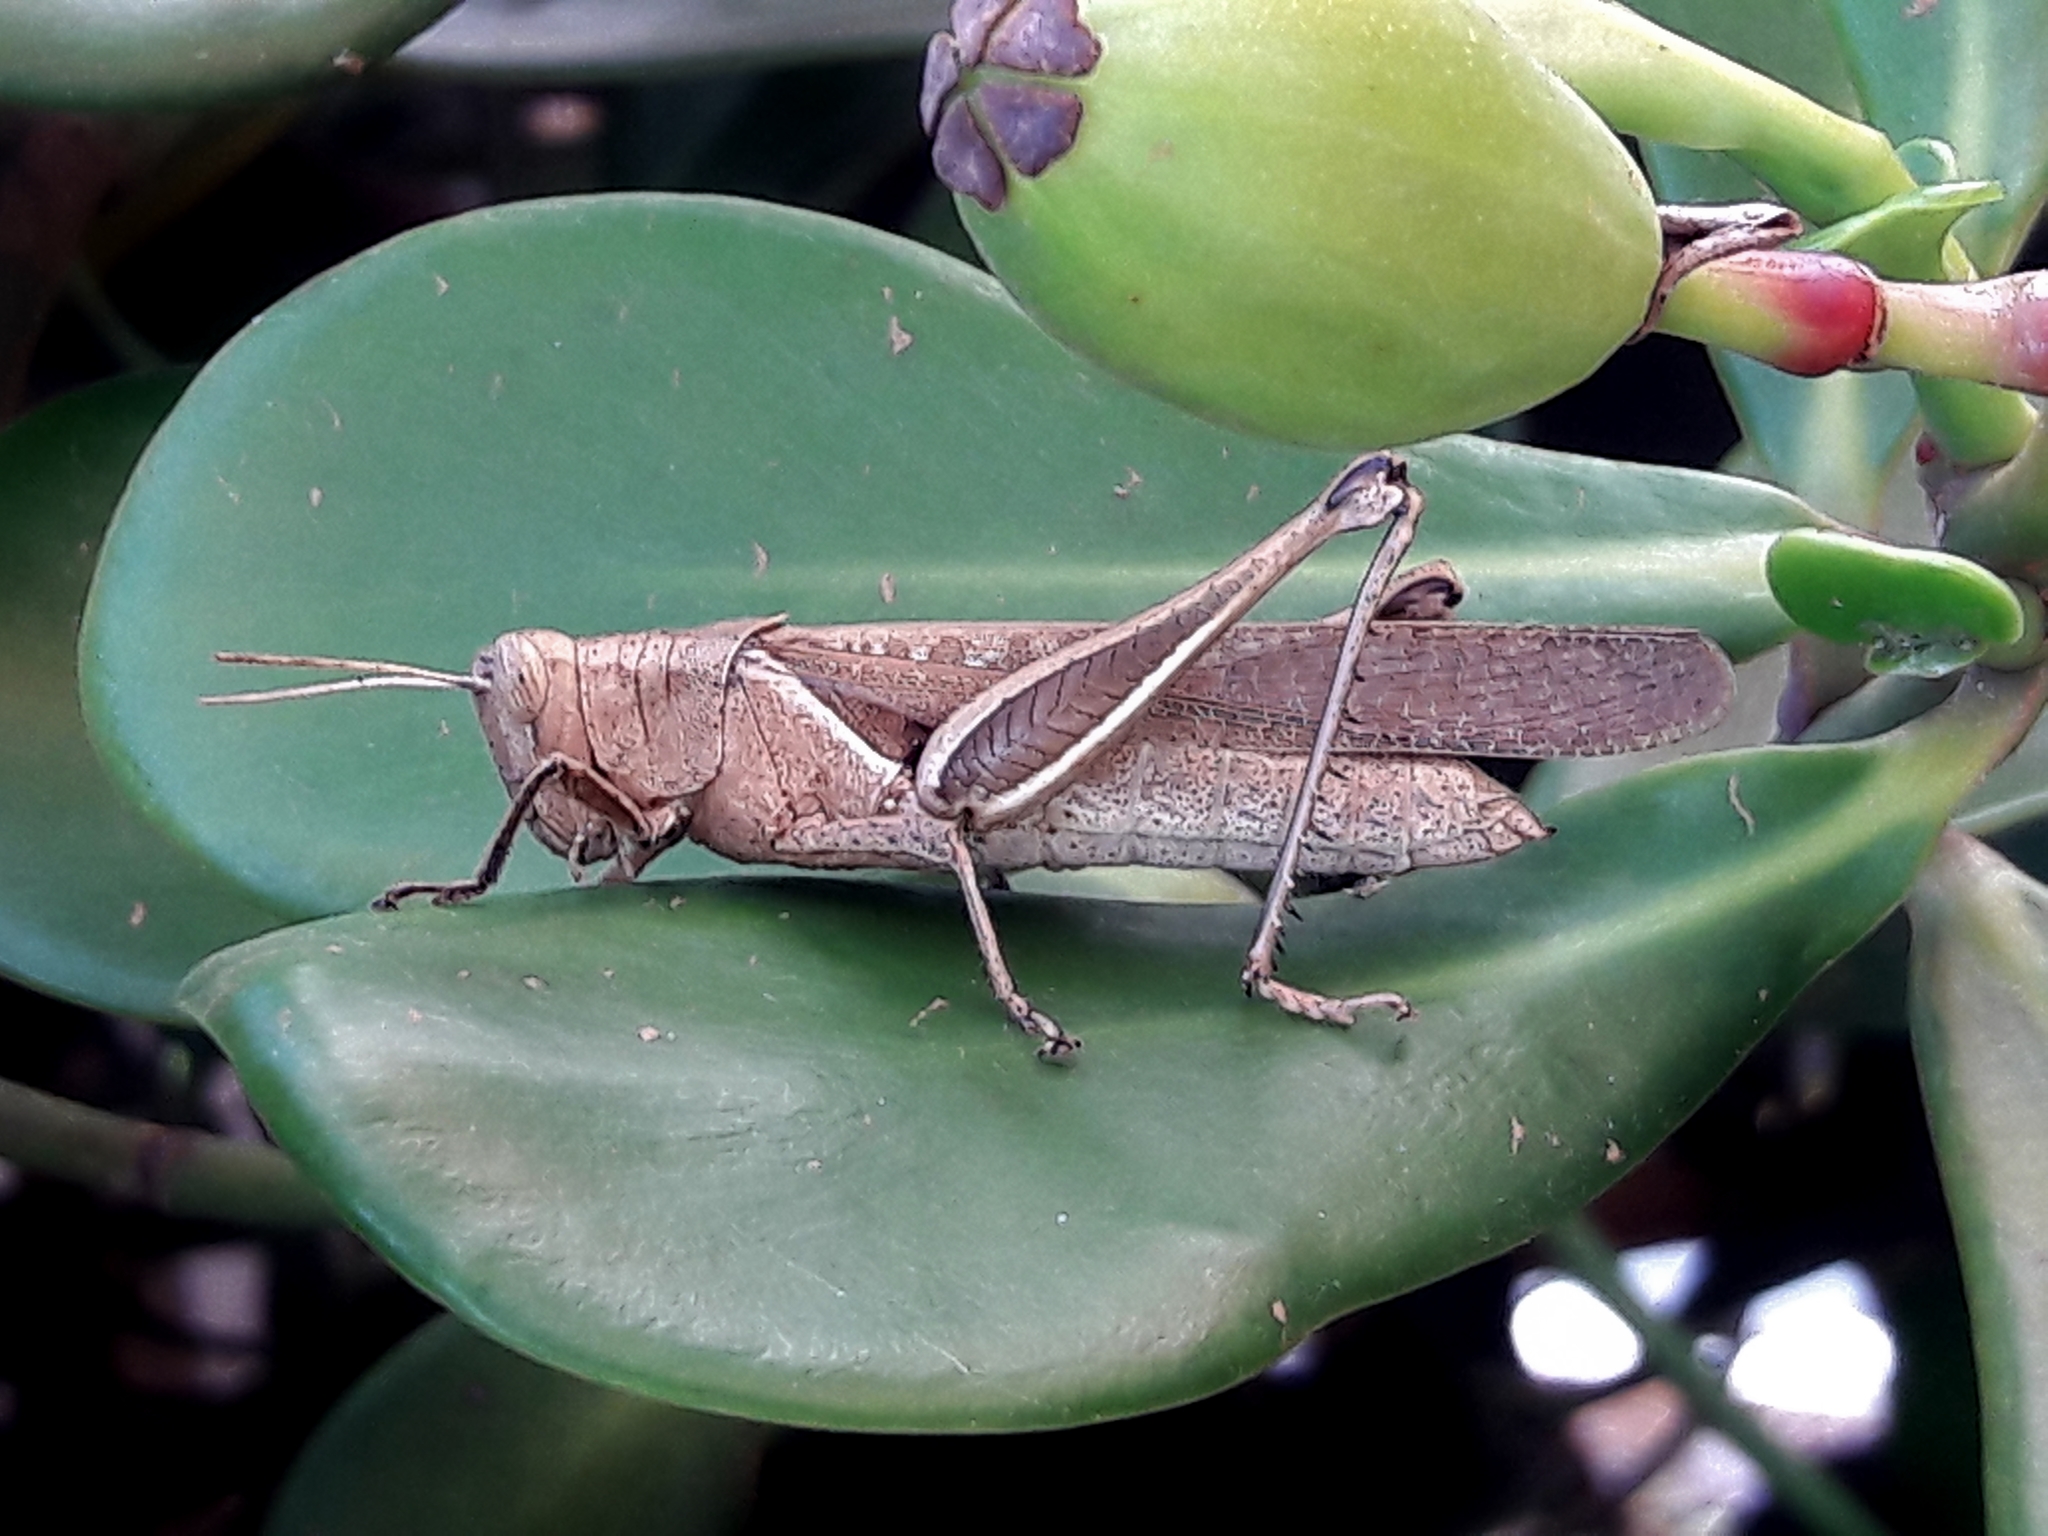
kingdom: Animalia
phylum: Arthropoda
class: Insecta
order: Orthoptera
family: Acrididae
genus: Abracris
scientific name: Abracris flavolineata
